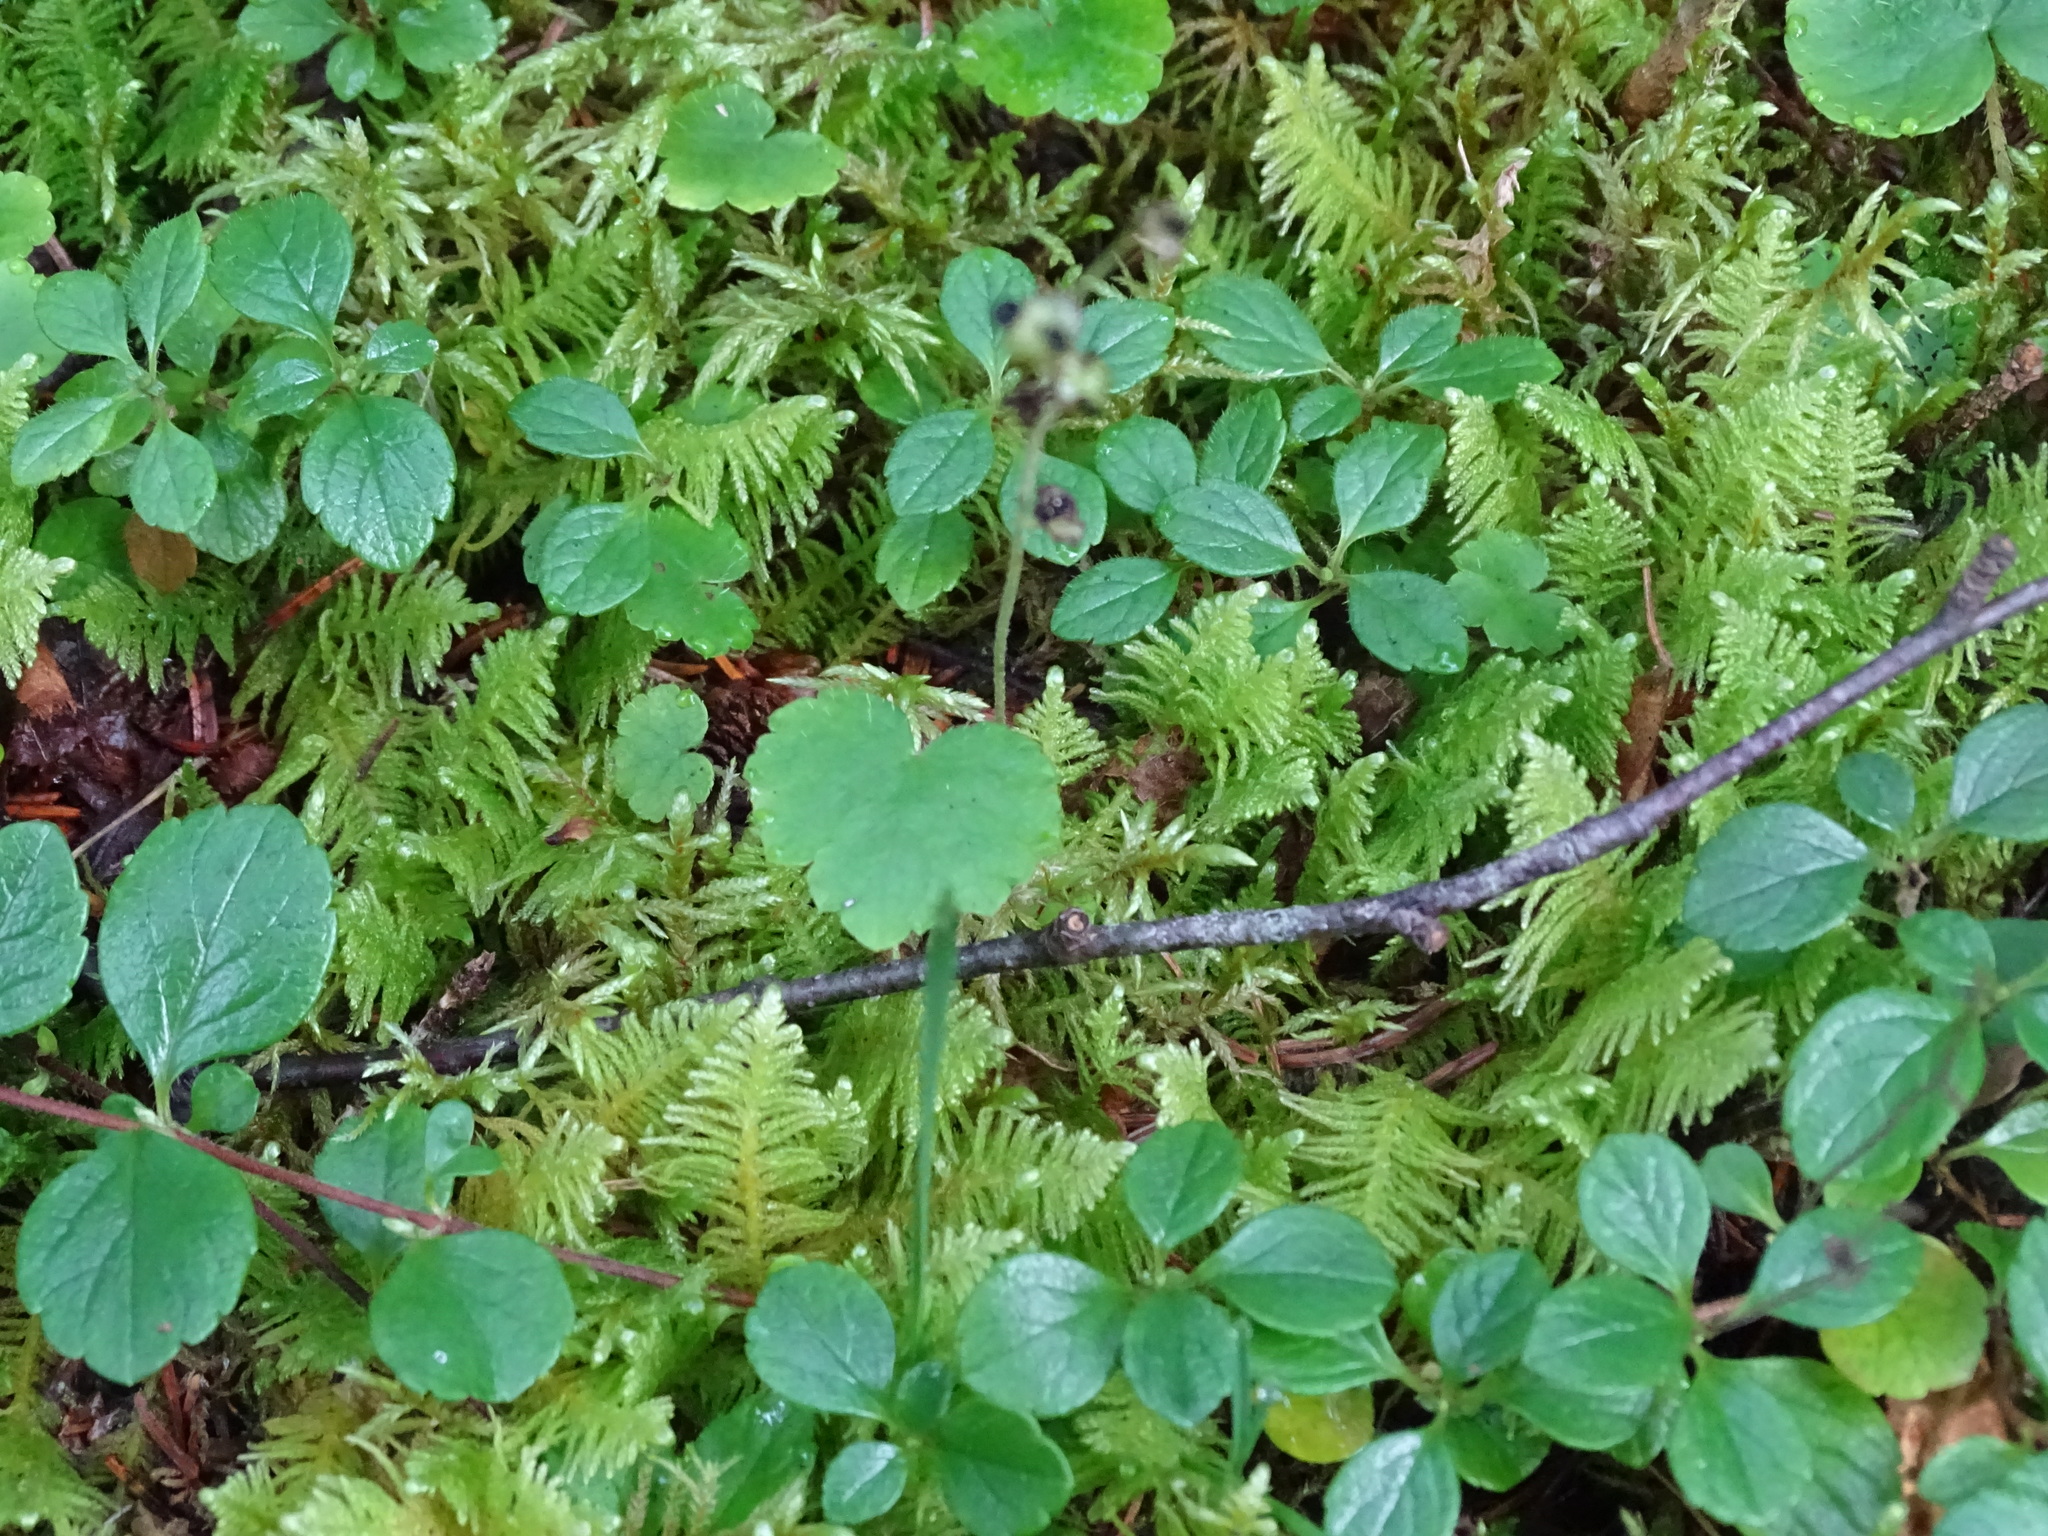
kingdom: Plantae
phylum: Tracheophyta
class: Magnoliopsida
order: Saxifragales
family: Saxifragaceae
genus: Mitella
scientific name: Mitella nuda
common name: Bare-stemmed bishop's-cap
